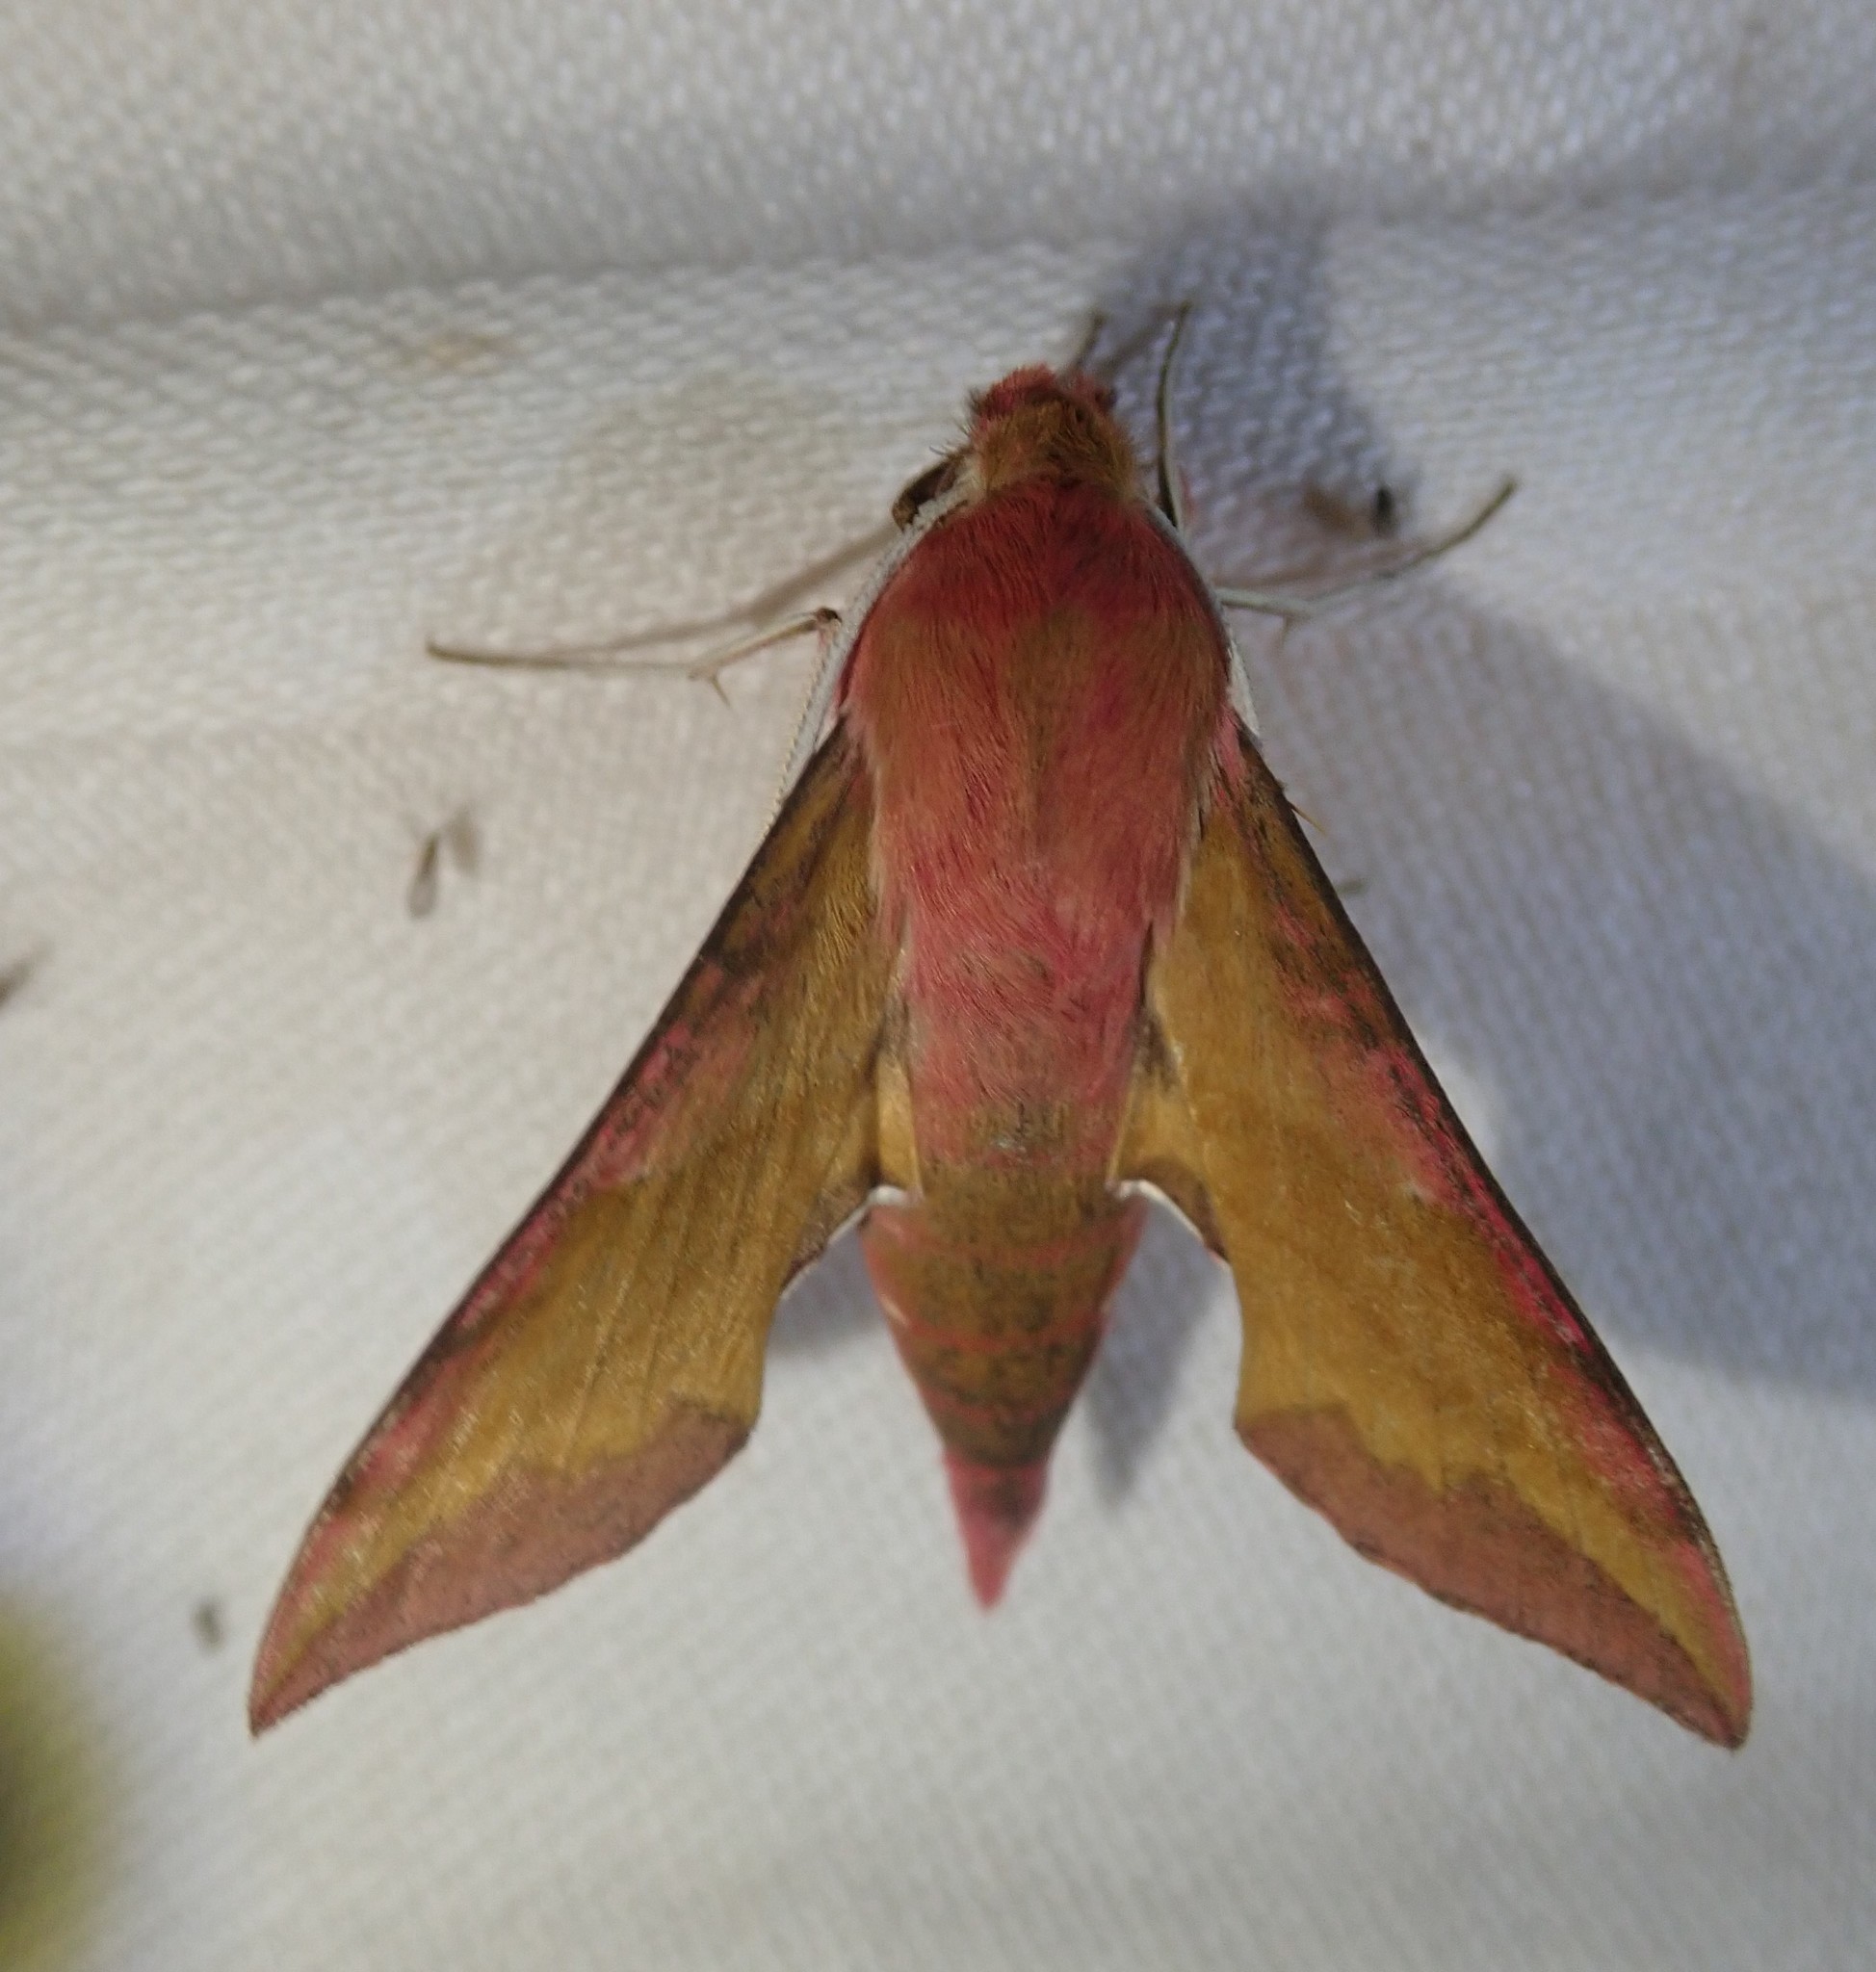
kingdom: Animalia
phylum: Arthropoda
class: Insecta
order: Lepidoptera
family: Sphingidae
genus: Deilephila
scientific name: Deilephila porcellus
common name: Small elephant hawk-moth
